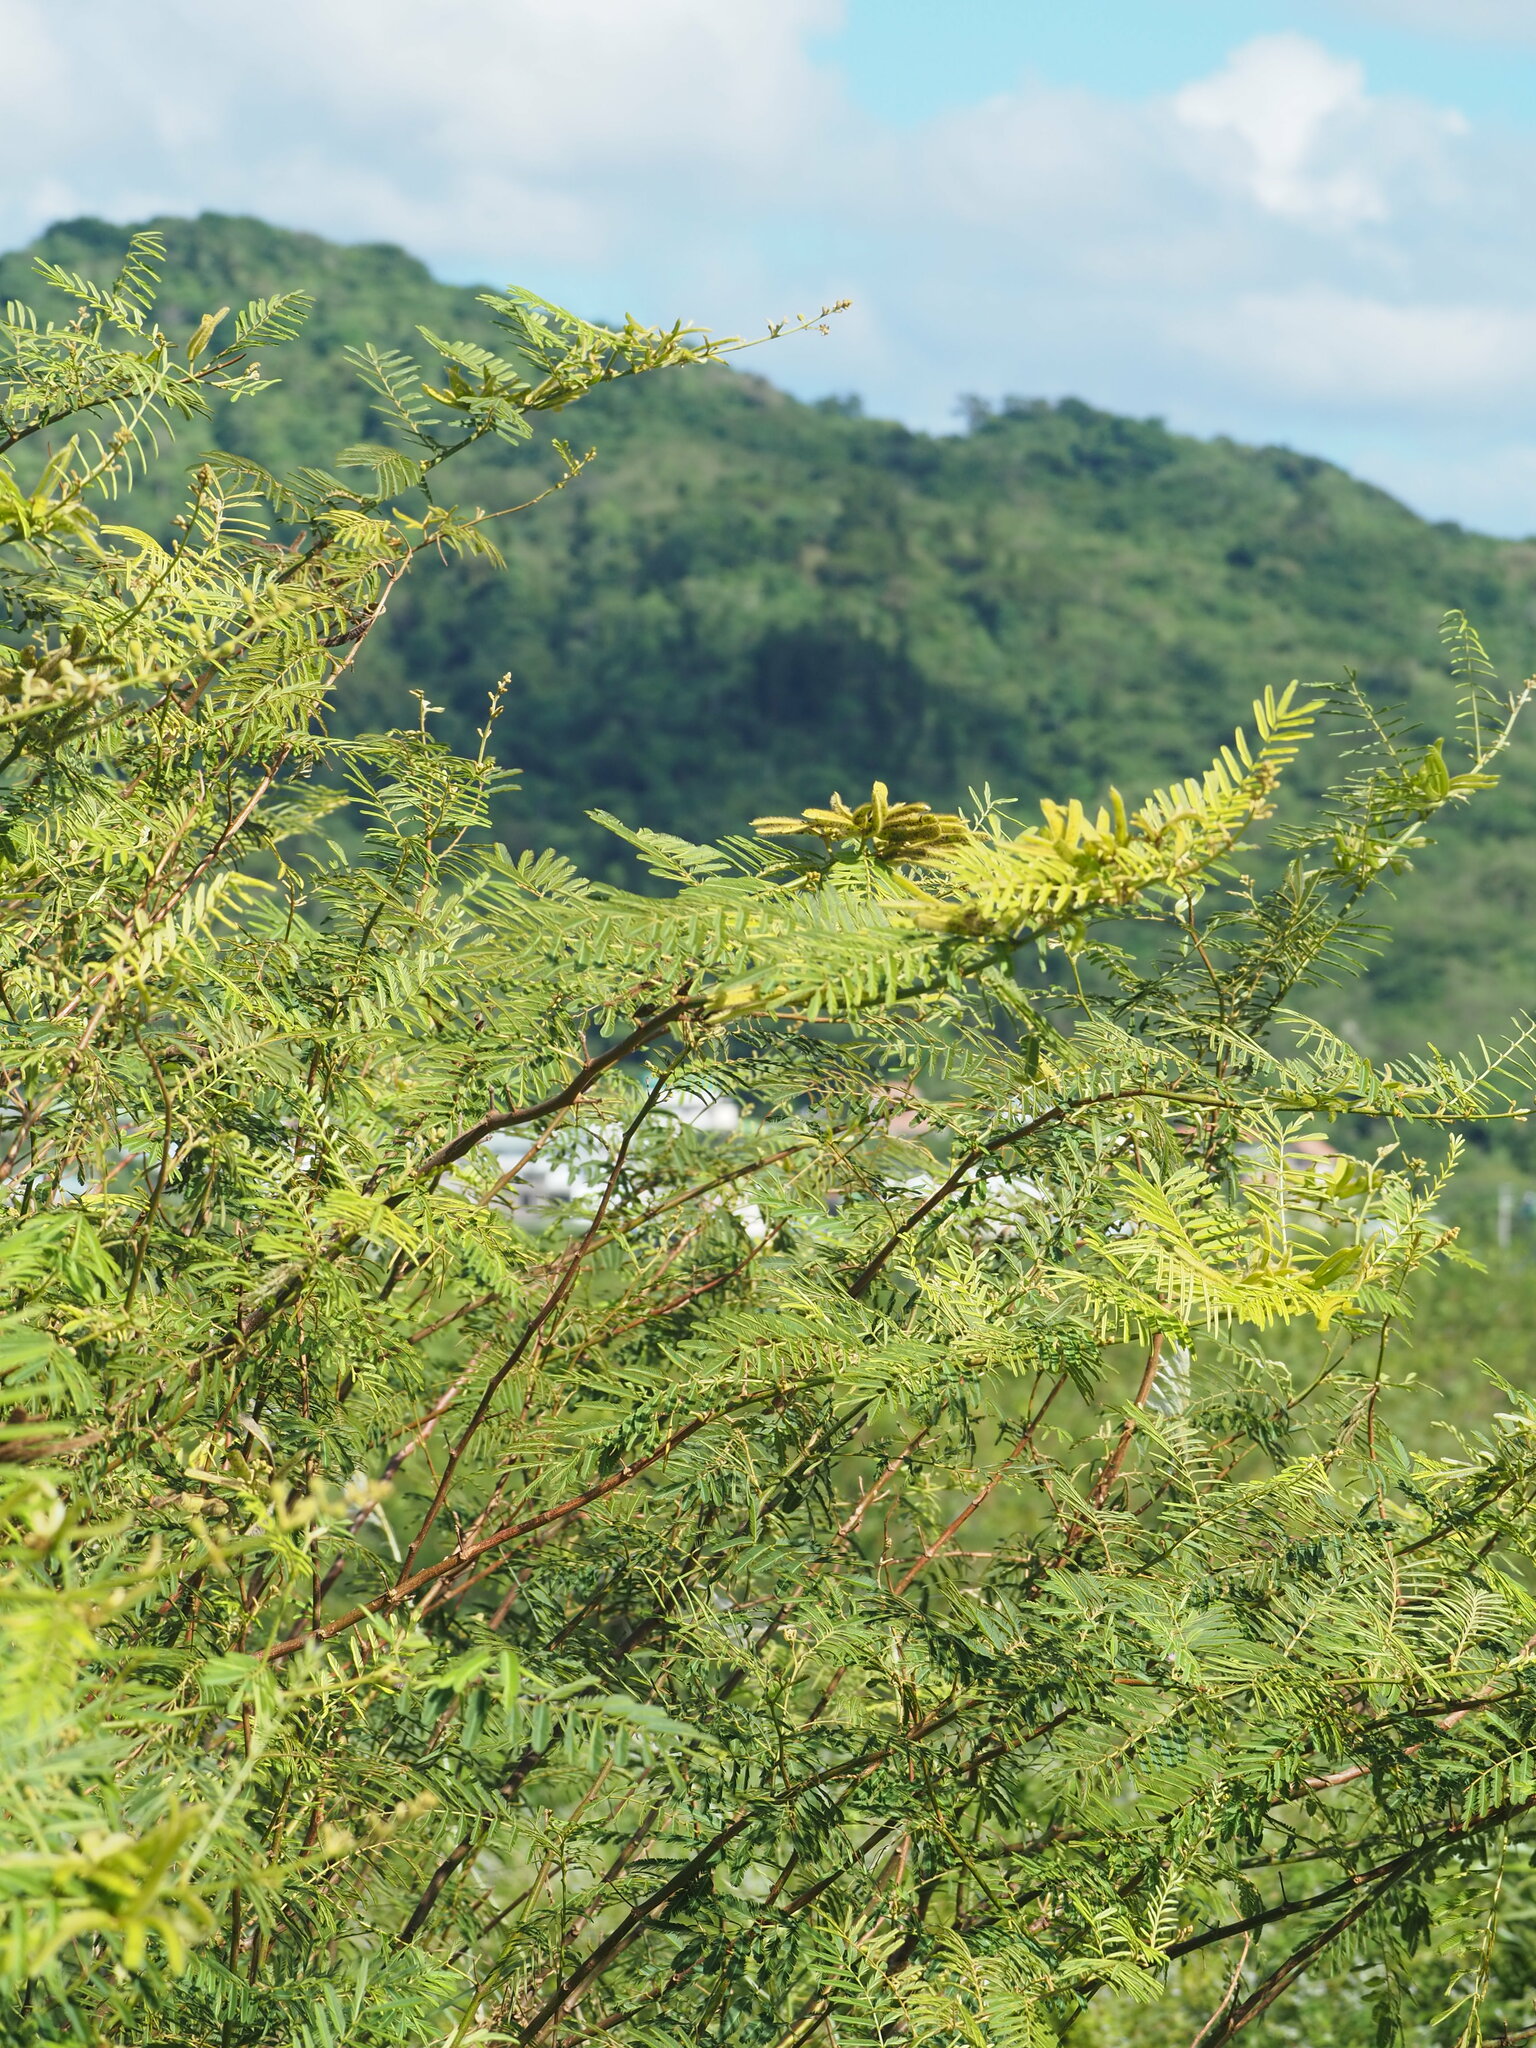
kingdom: Plantae
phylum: Tracheophyta
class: Magnoliopsida
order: Fabales
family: Fabaceae
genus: Mimosa
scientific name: Mimosa pigra
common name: Black mimosa
